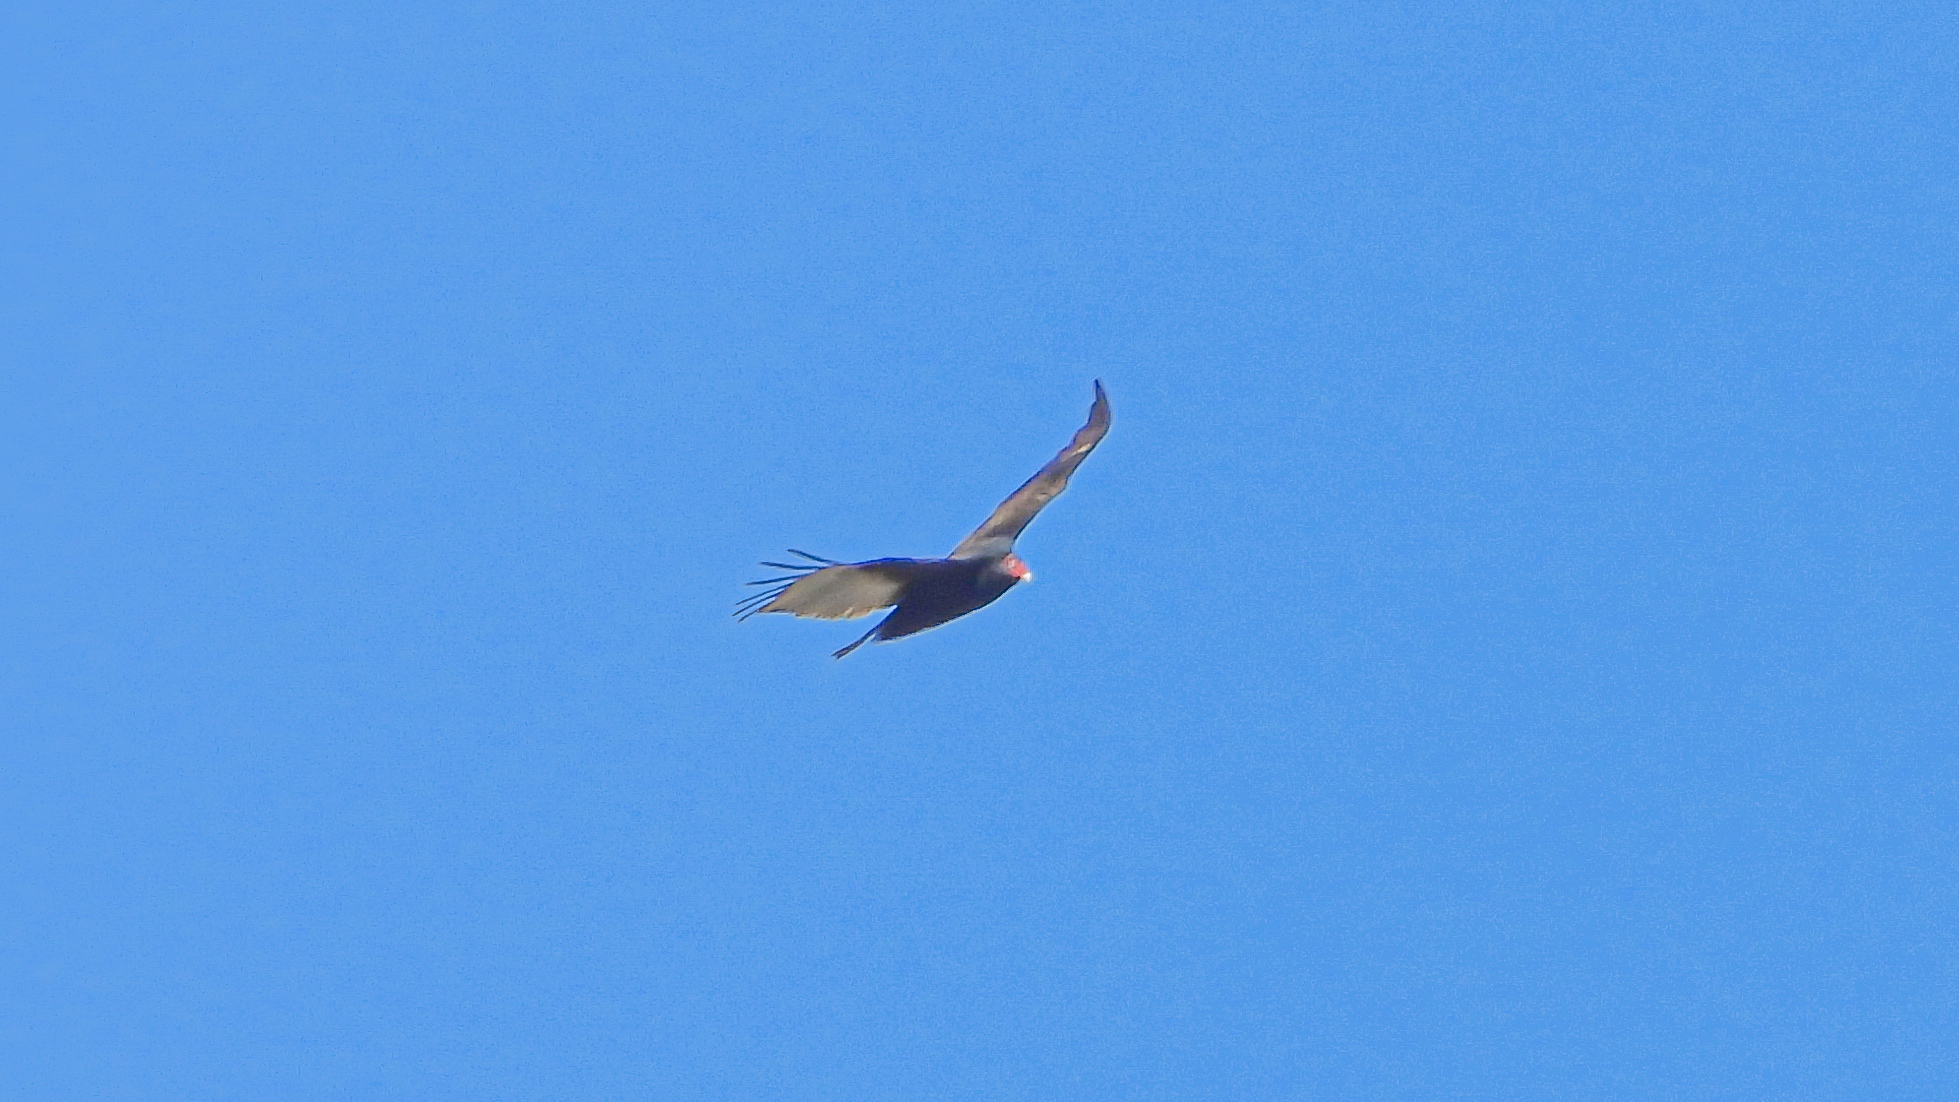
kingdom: Animalia
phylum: Chordata
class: Aves
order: Accipitriformes
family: Cathartidae
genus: Cathartes
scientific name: Cathartes aura
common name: Turkey vulture
